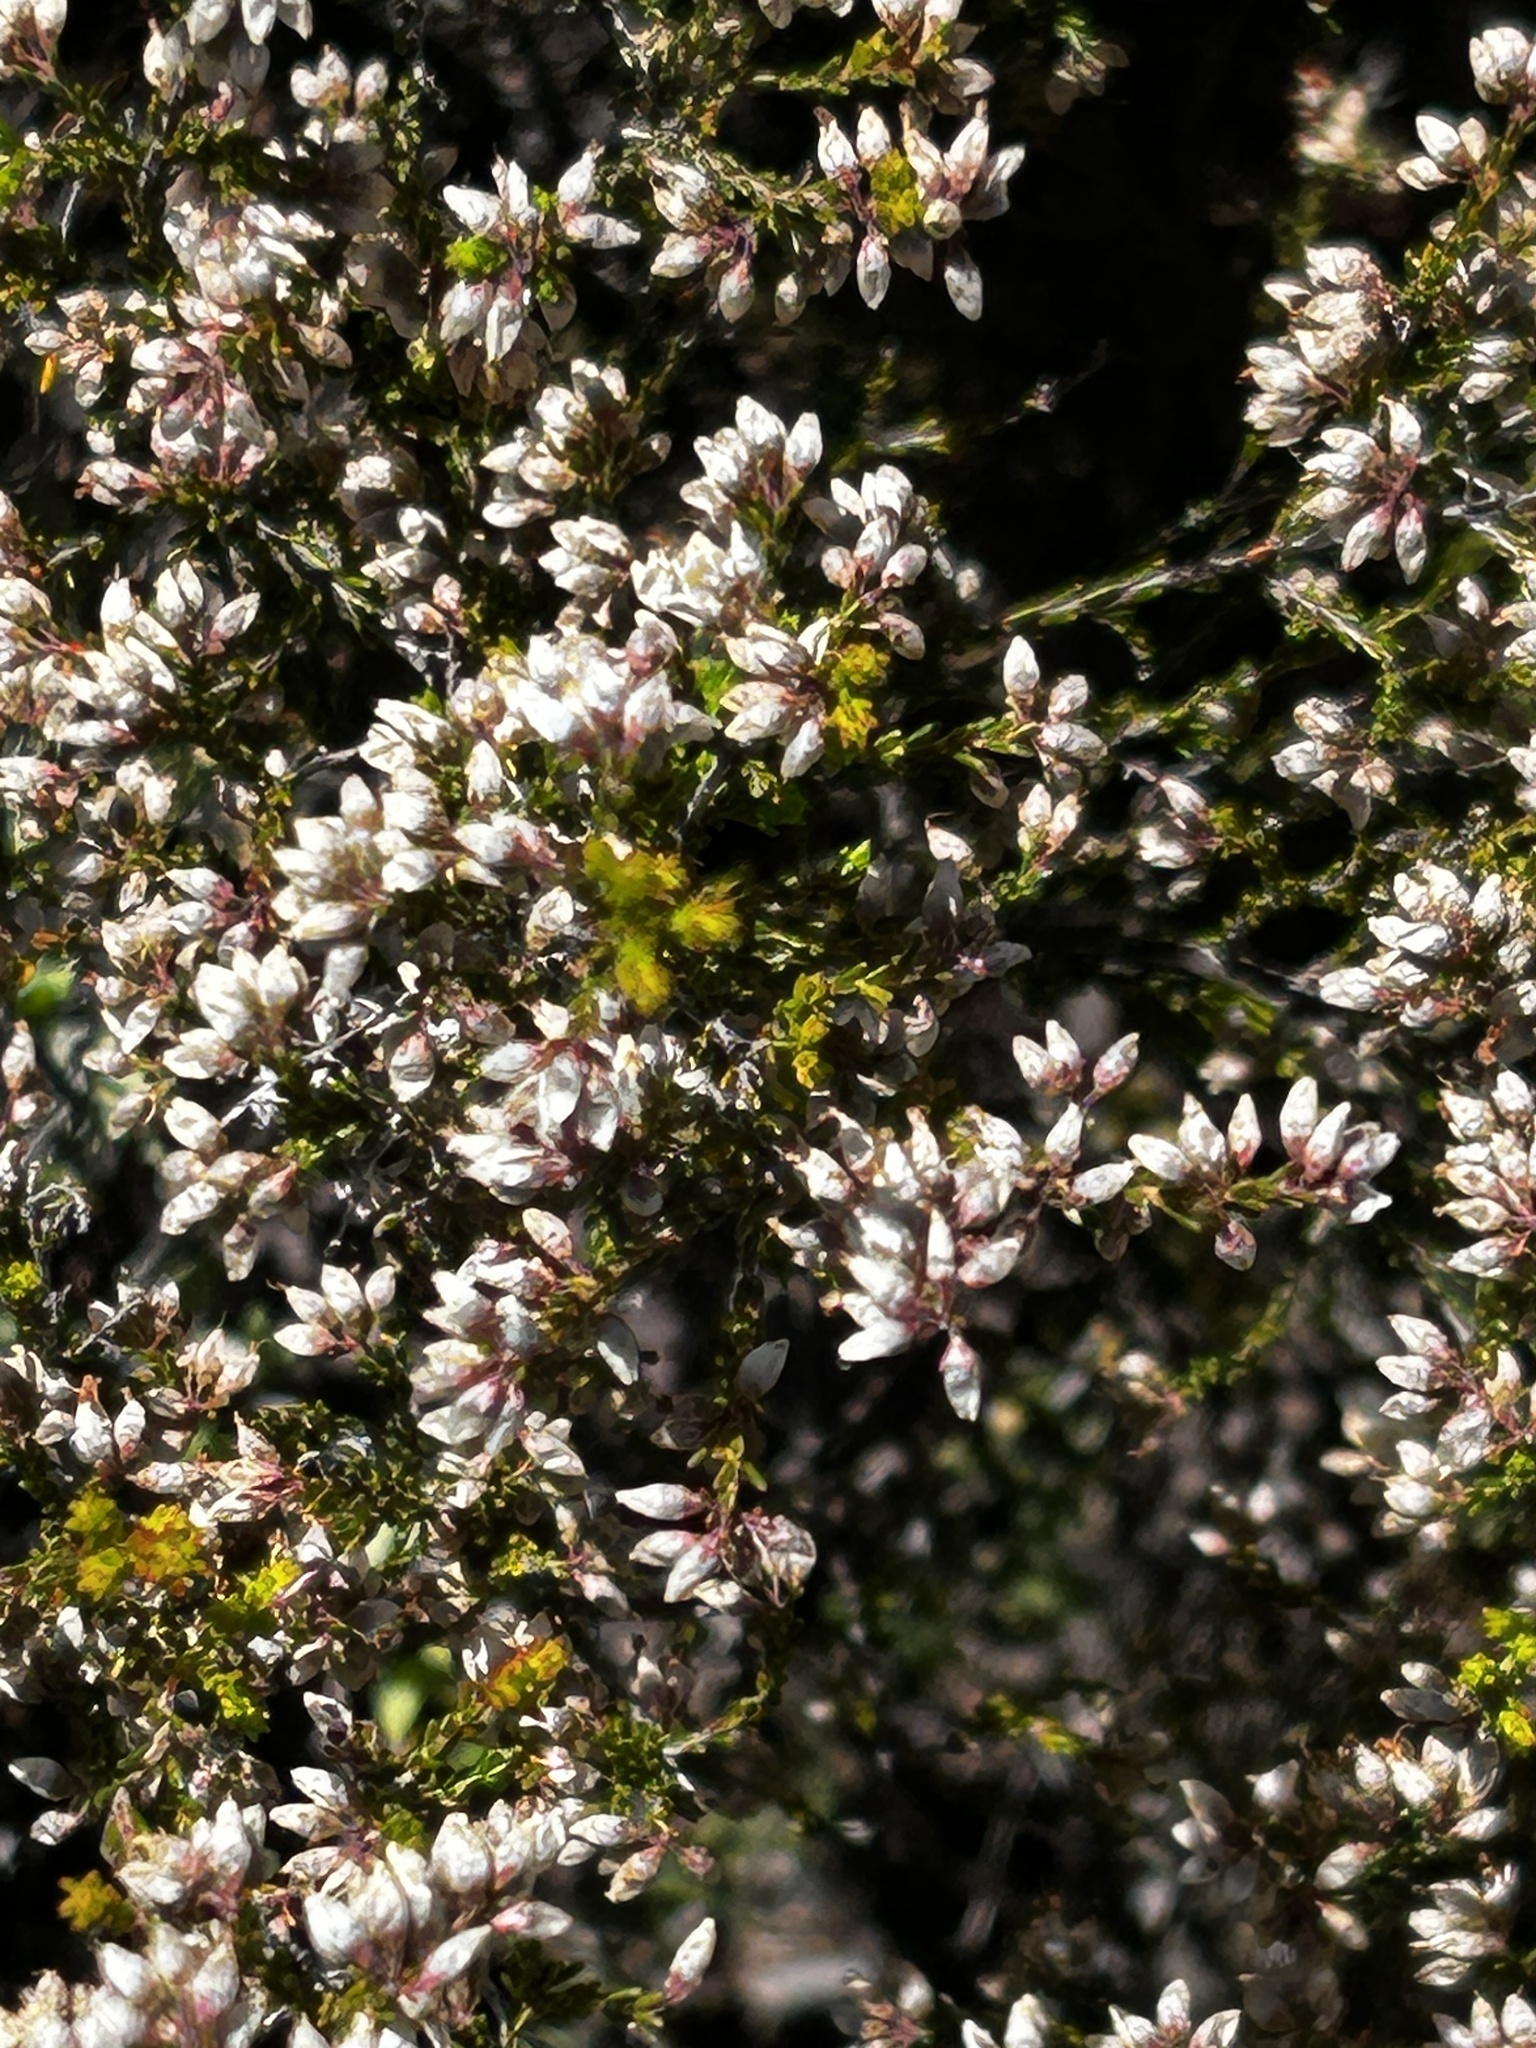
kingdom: Plantae
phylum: Tracheophyta
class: Magnoliopsida
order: Ericales
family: Ericaceae
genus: Erica
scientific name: Erica rosacea
